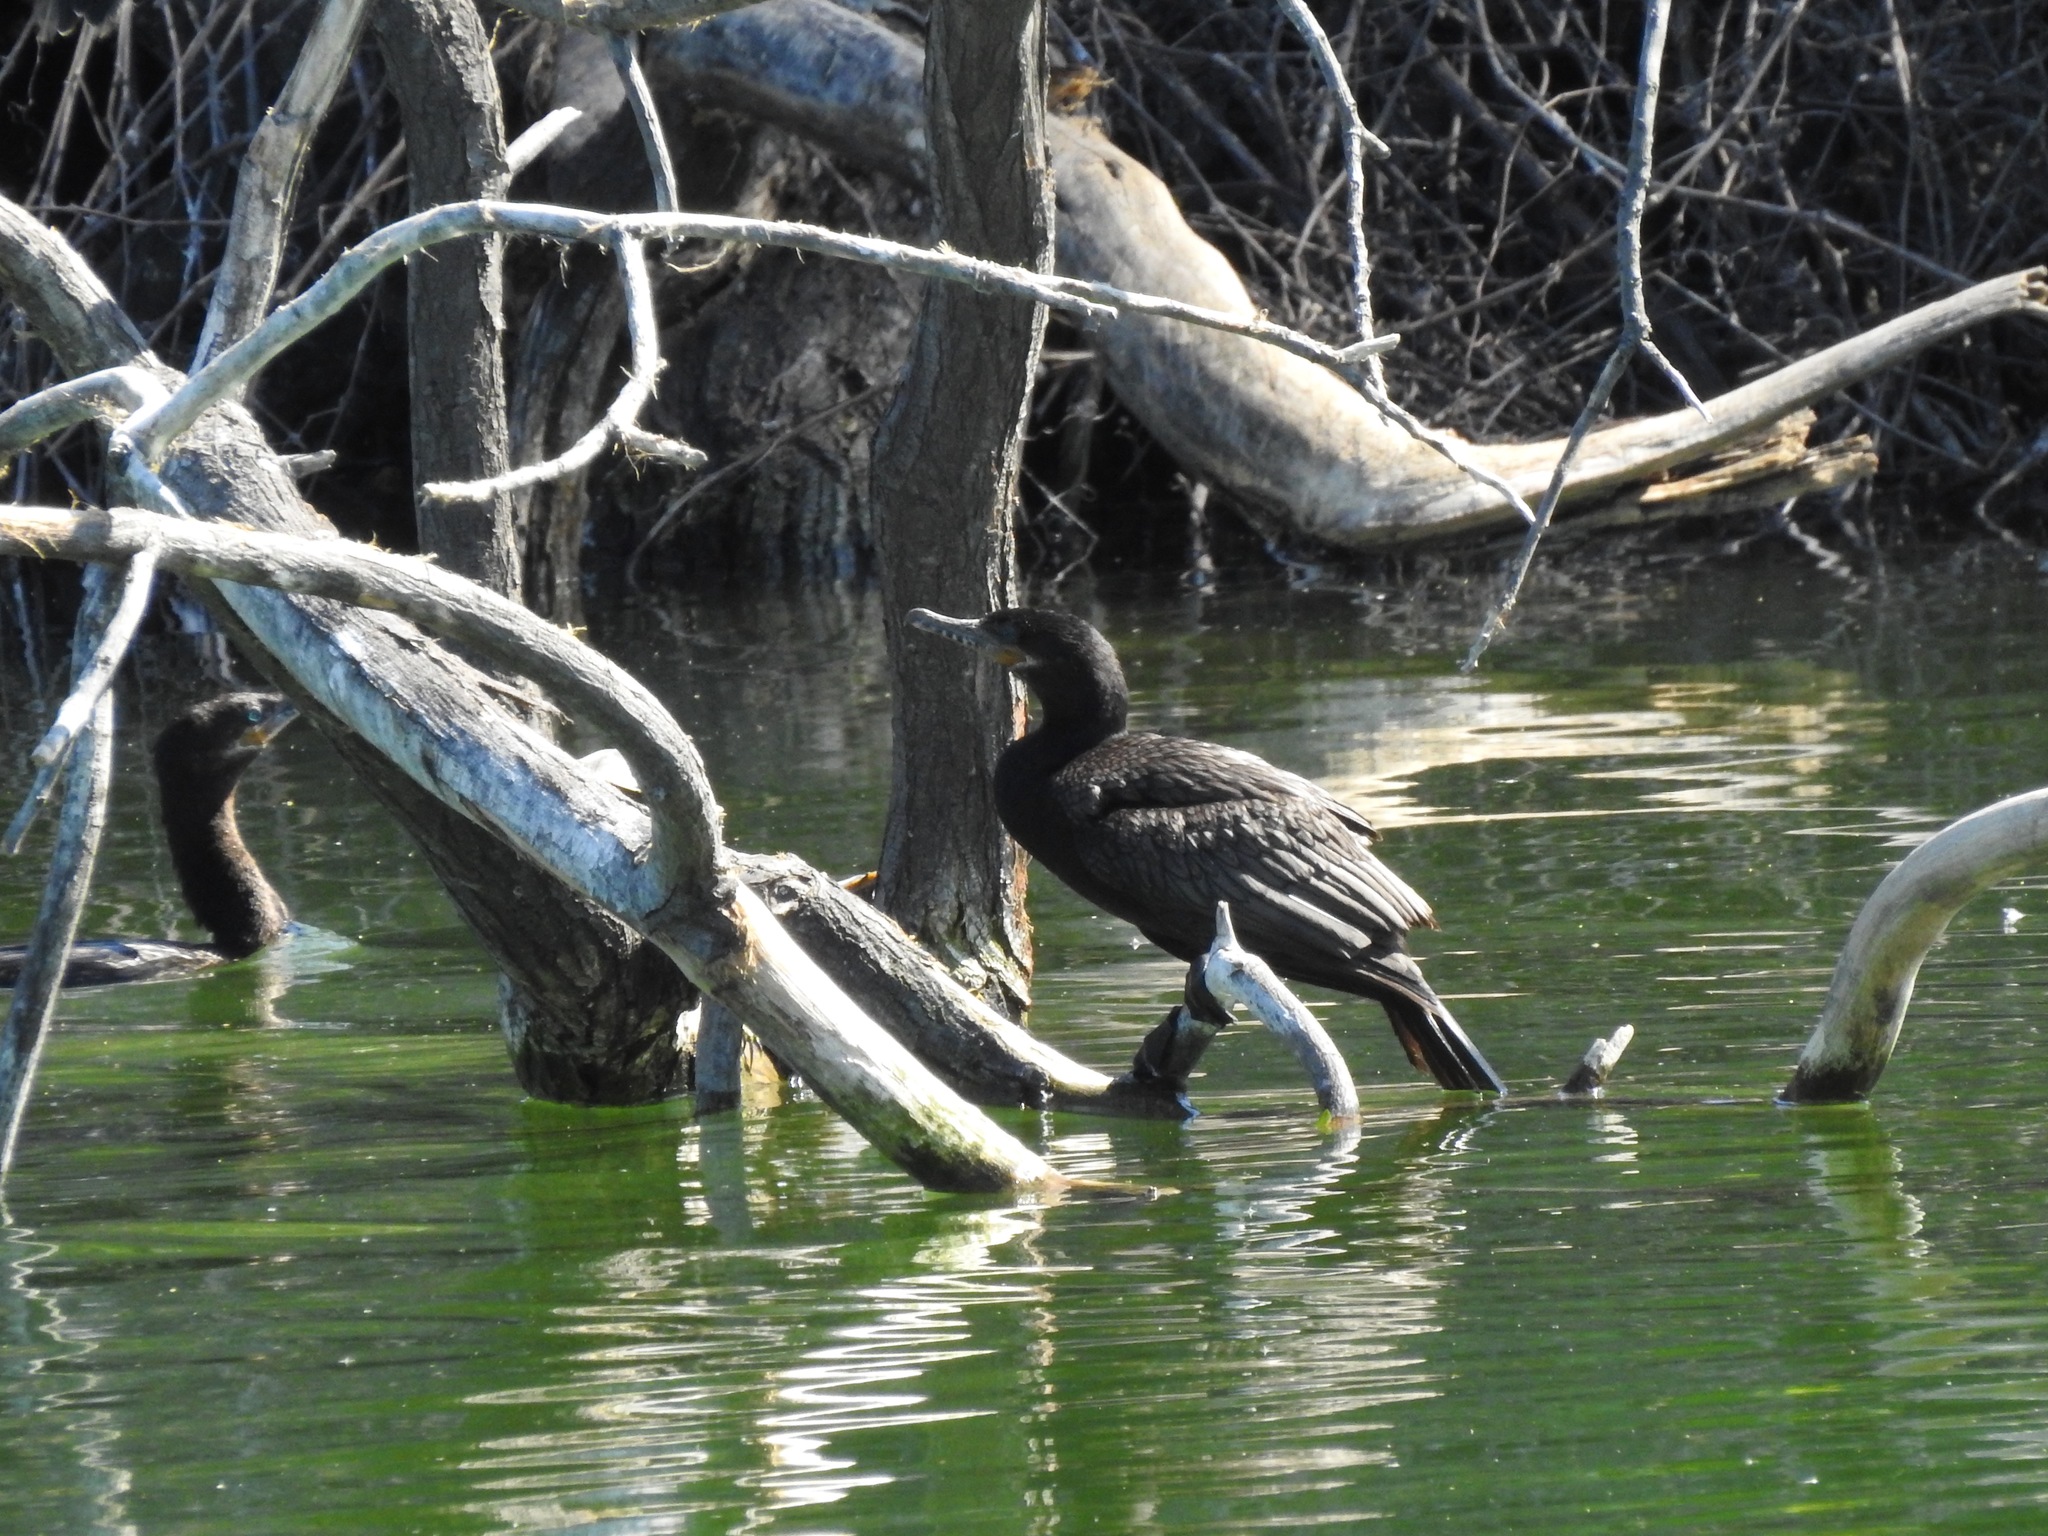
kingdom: Animalia
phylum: Chordata
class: Aves
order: Suliformes
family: Phalacrocoracidae
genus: Phalacrocorax
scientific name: Phalacrocorax brasilianus
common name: Neotropic cormorant
